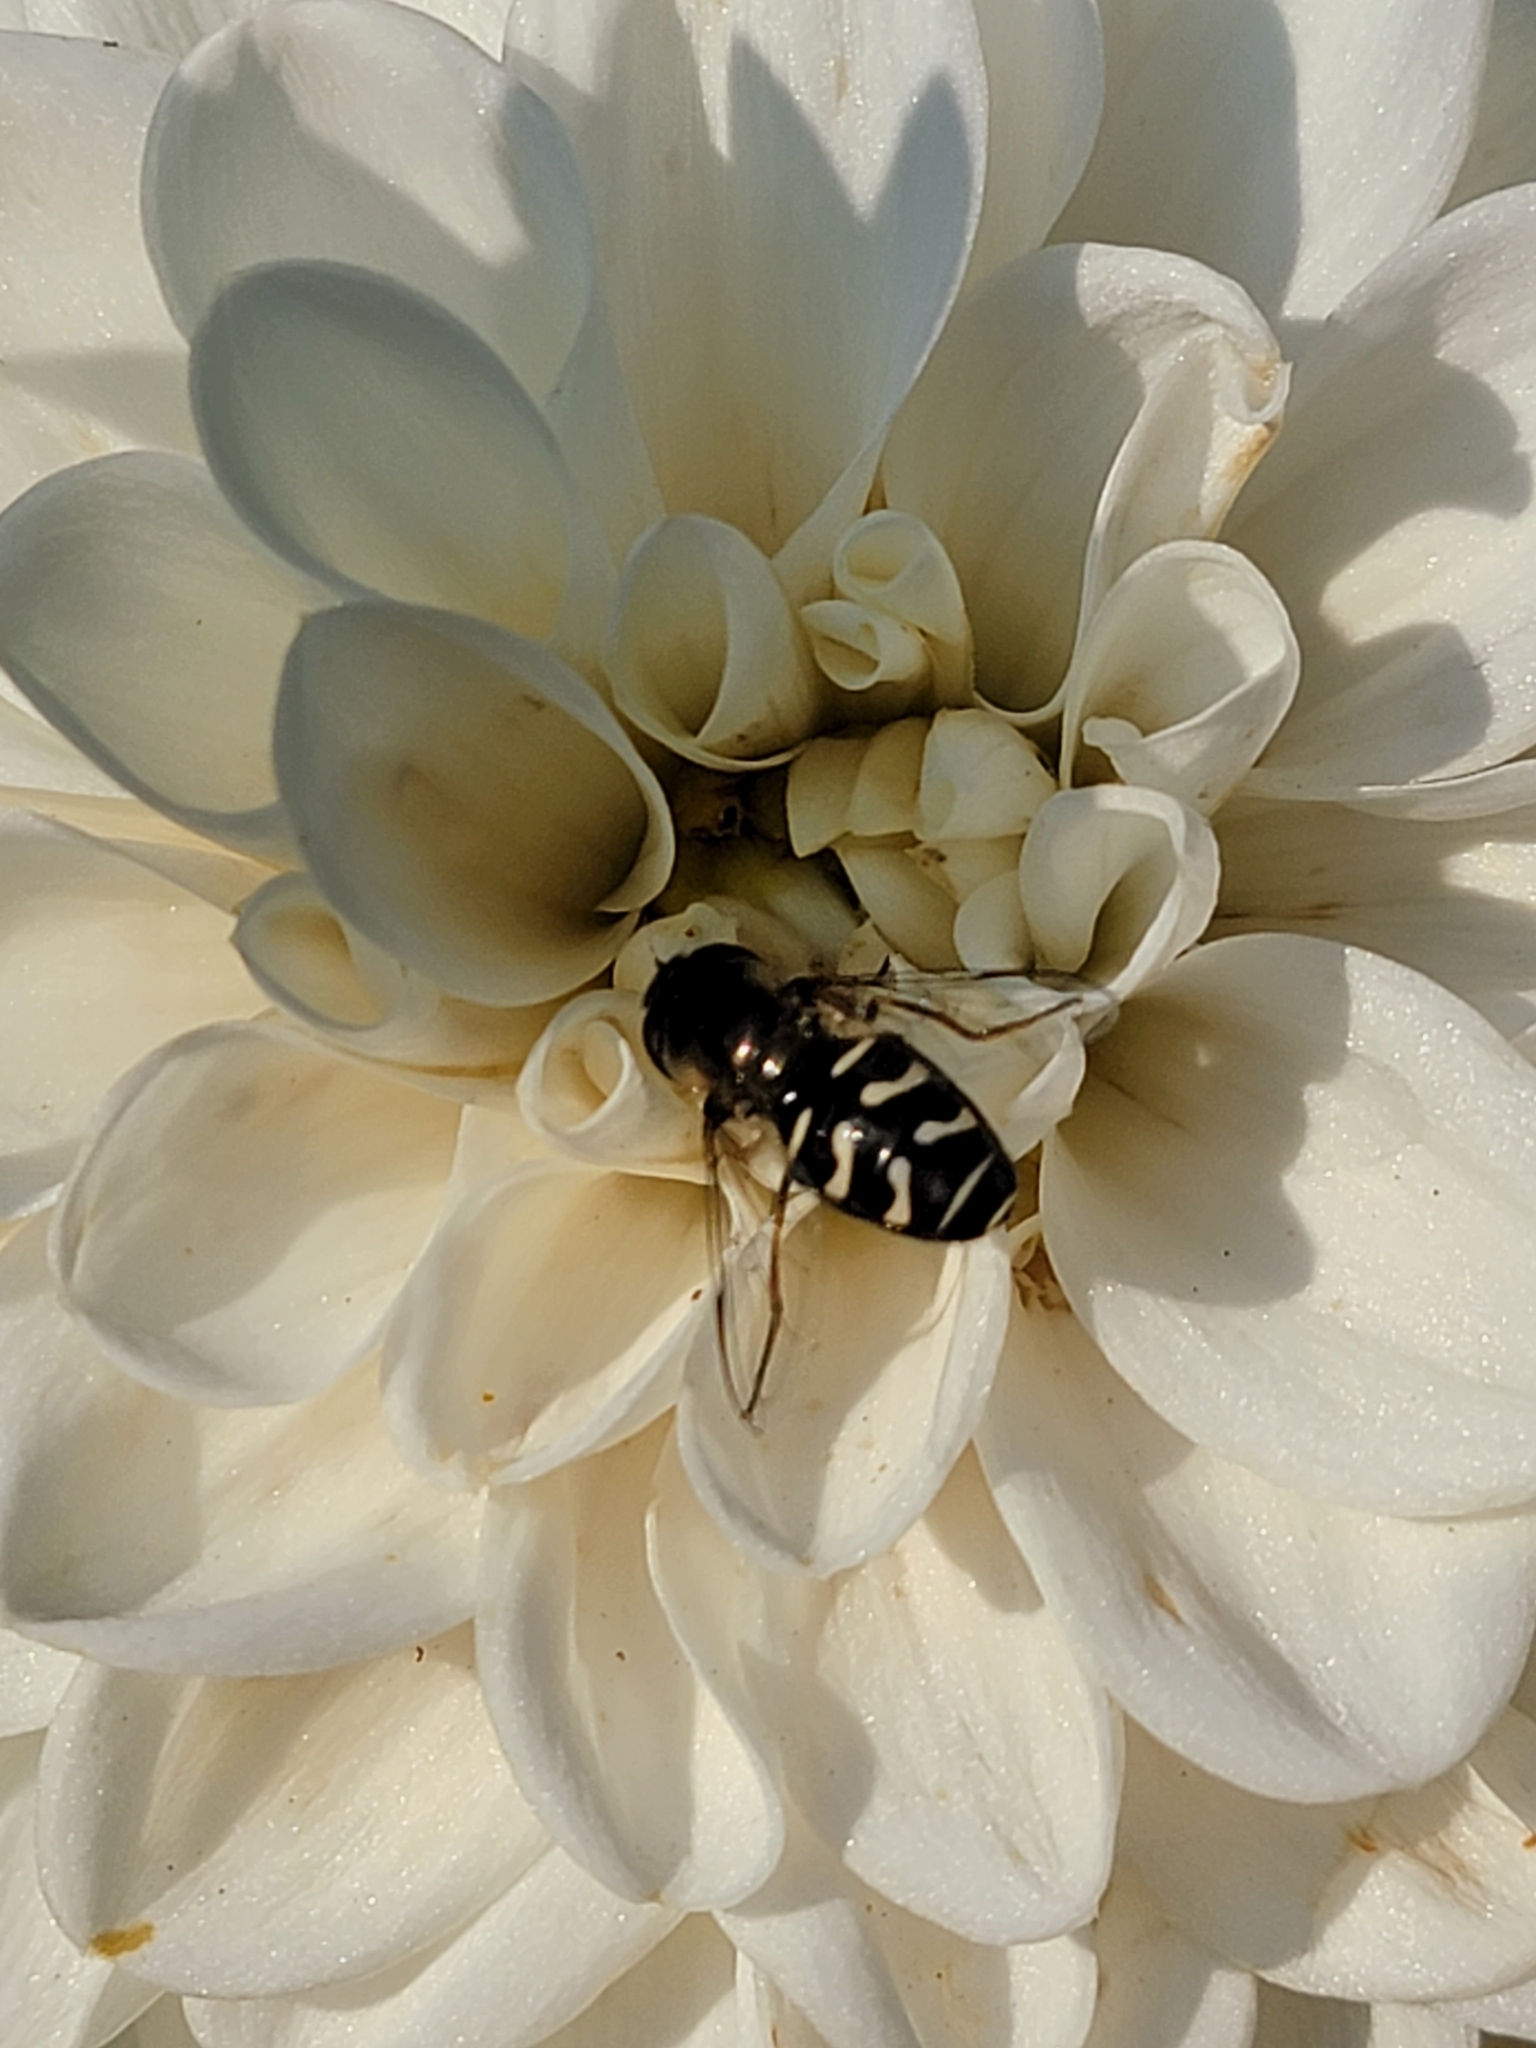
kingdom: Animalia
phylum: Arthropoda
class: Insecta
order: Diptera
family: Syrphidae
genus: Scaeva
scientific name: Scaeva affinis
